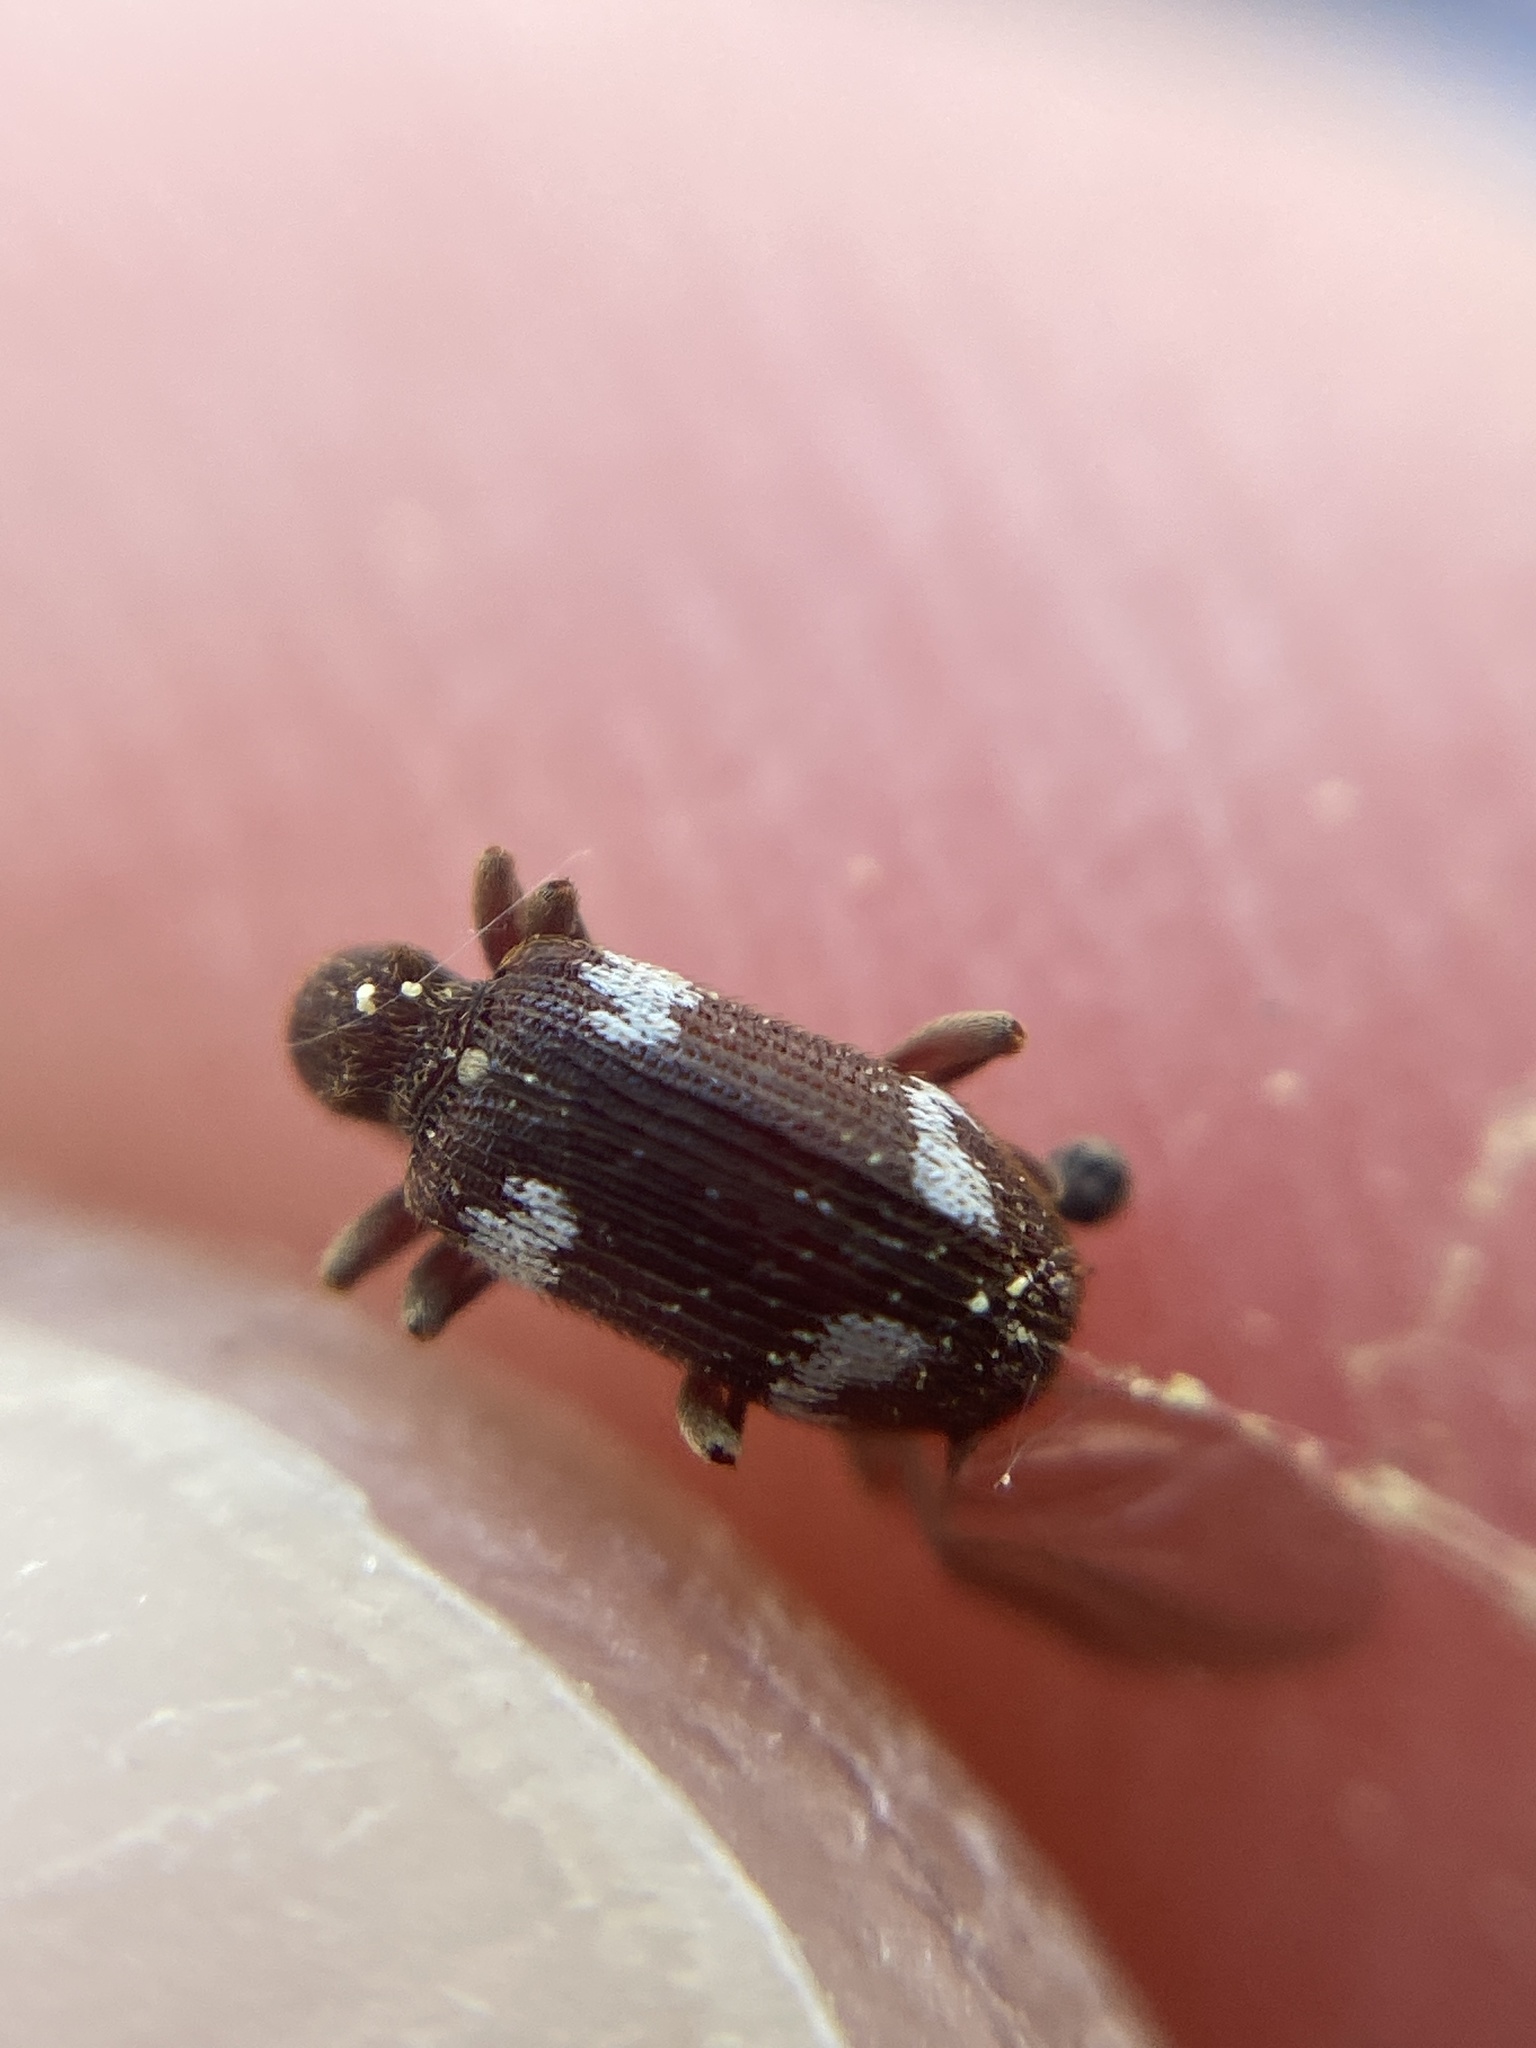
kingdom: Animalia
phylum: Arthropoda
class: Insecta
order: Coleoptera
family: Ptinidae
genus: Ptinus
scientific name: Ptinus sexpunctatus
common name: Six-spotted spider beetle
